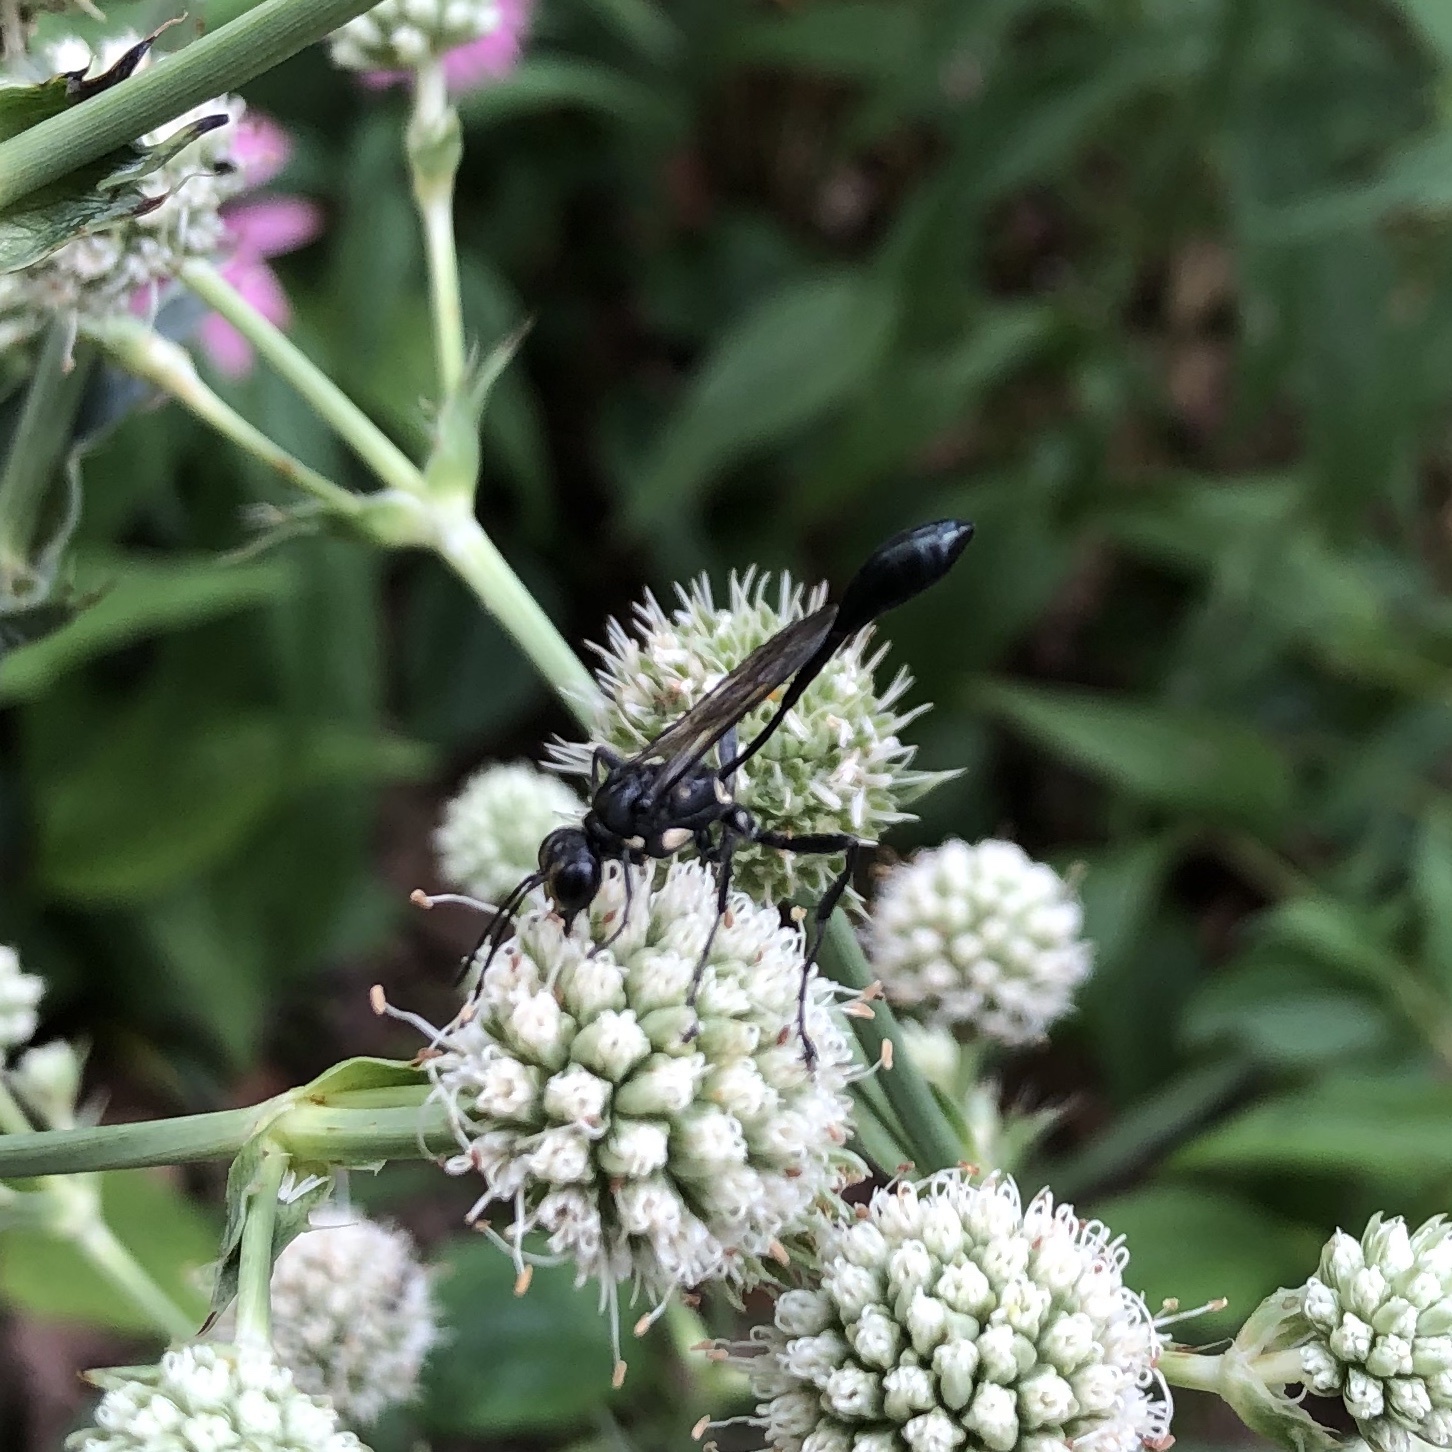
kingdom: Animalia
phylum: Arthropoda
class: Insecta
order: Hymenoptera
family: Sphecidae
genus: Eremnophila
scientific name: Eremnophila aureonotata
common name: Gold-marked thread-waisted wasp
